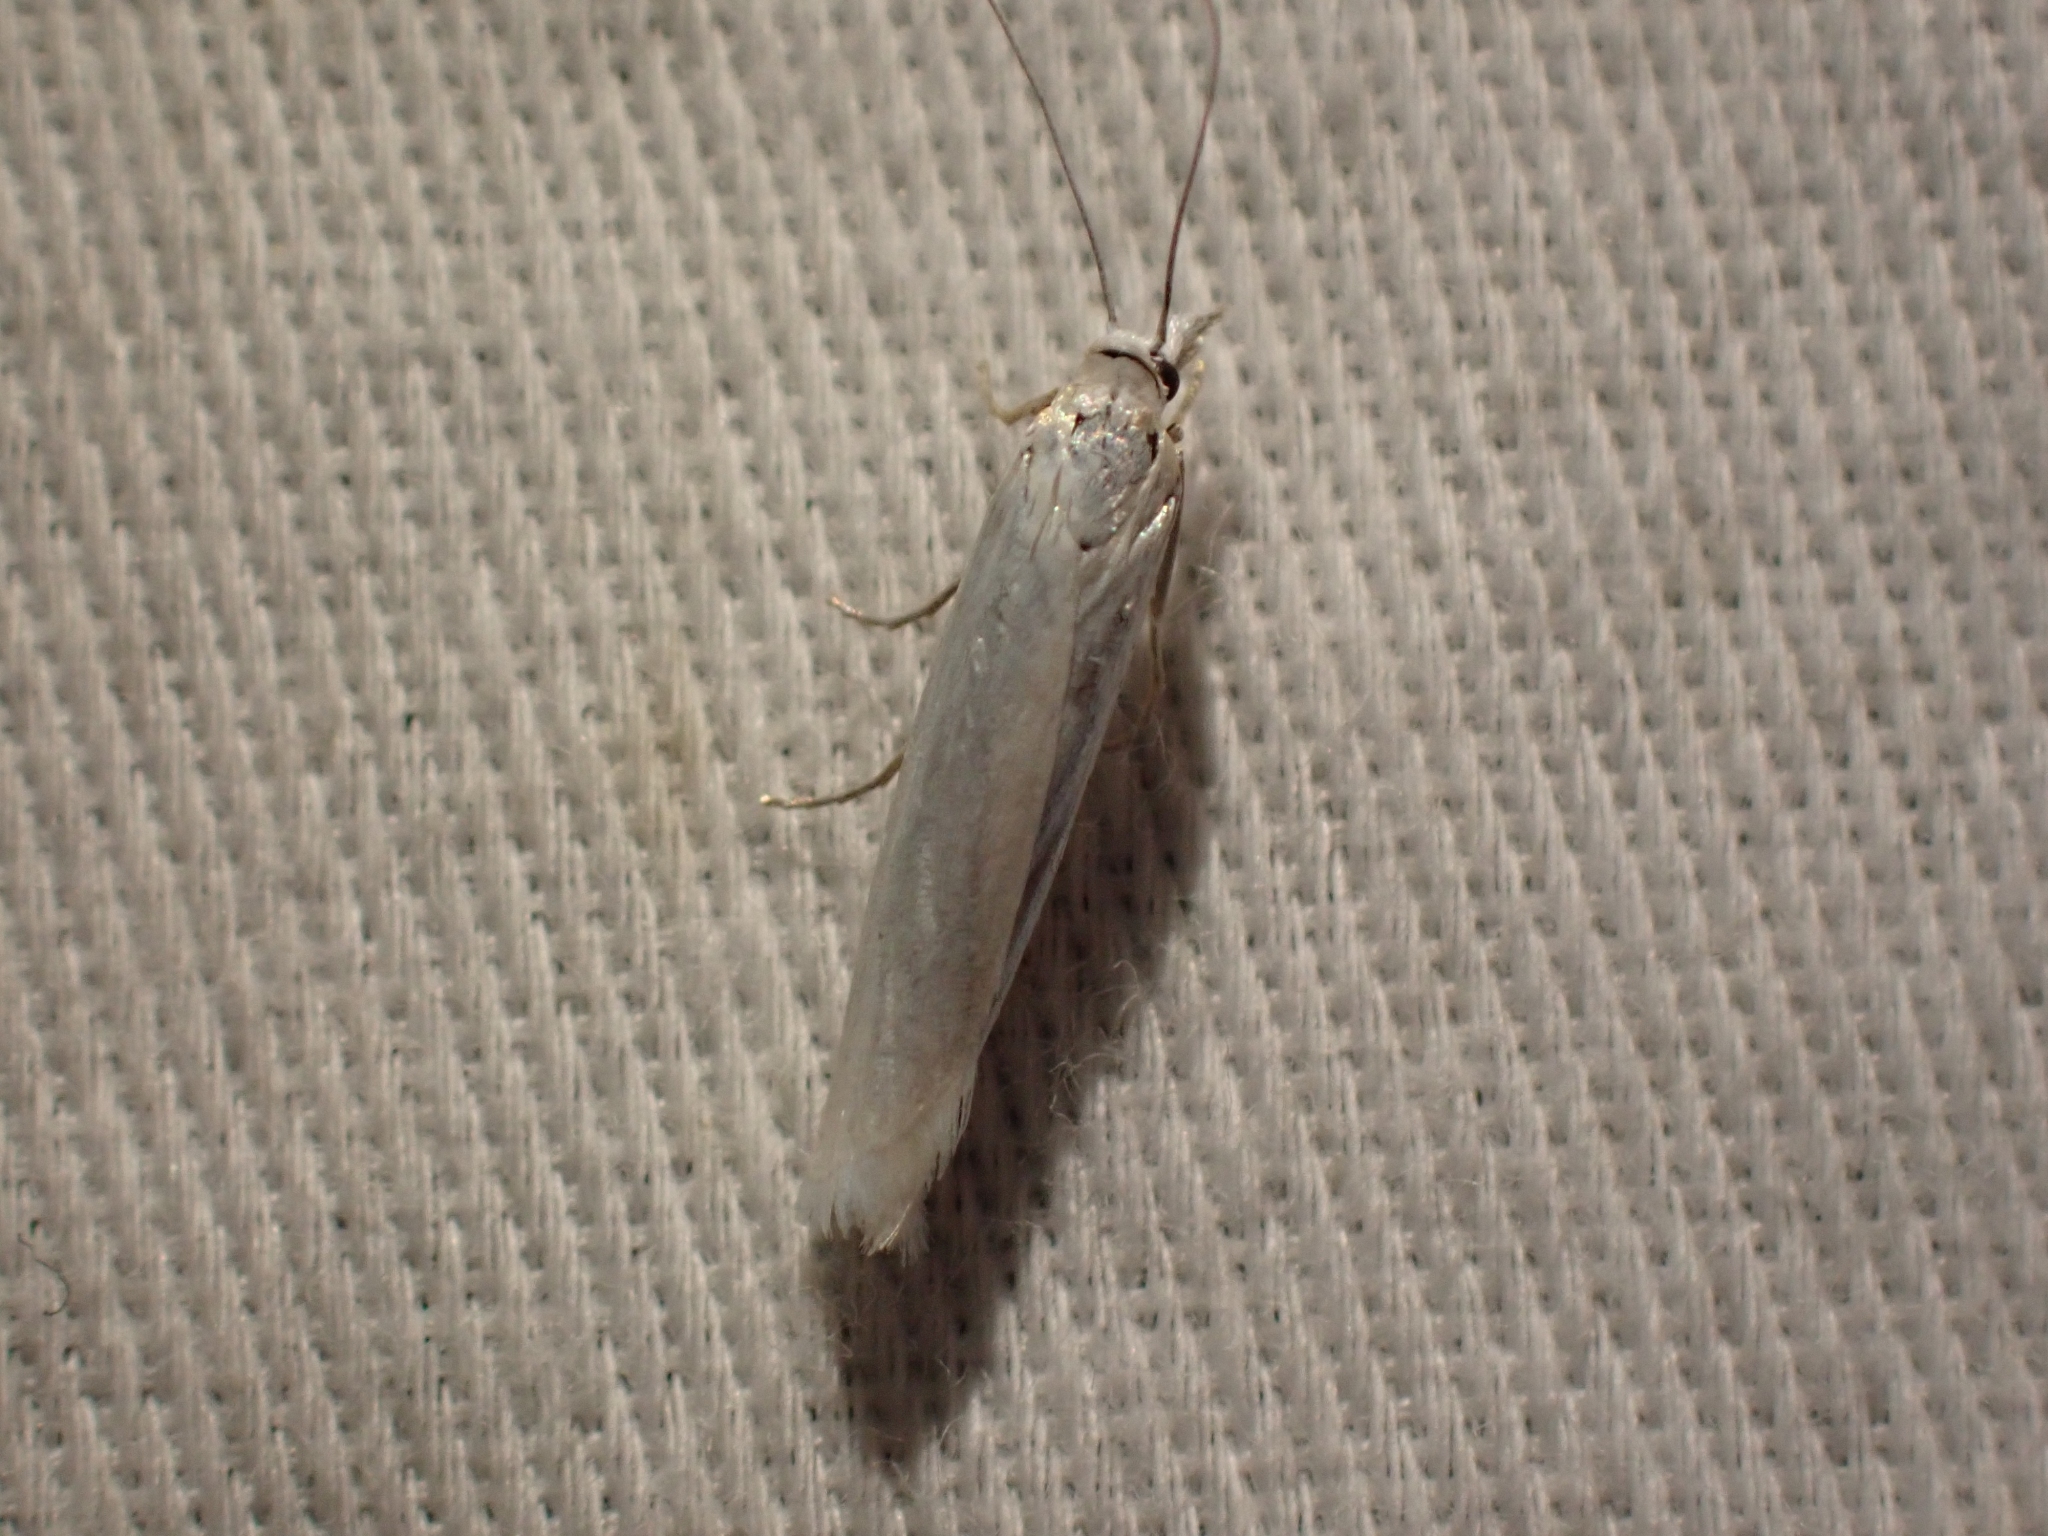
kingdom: Animalia
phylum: Arthropoda
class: Insecta
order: Lepidoptera
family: Crambidae
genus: Crambus
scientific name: Crambus perlellus
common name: Yellow satin veneer
